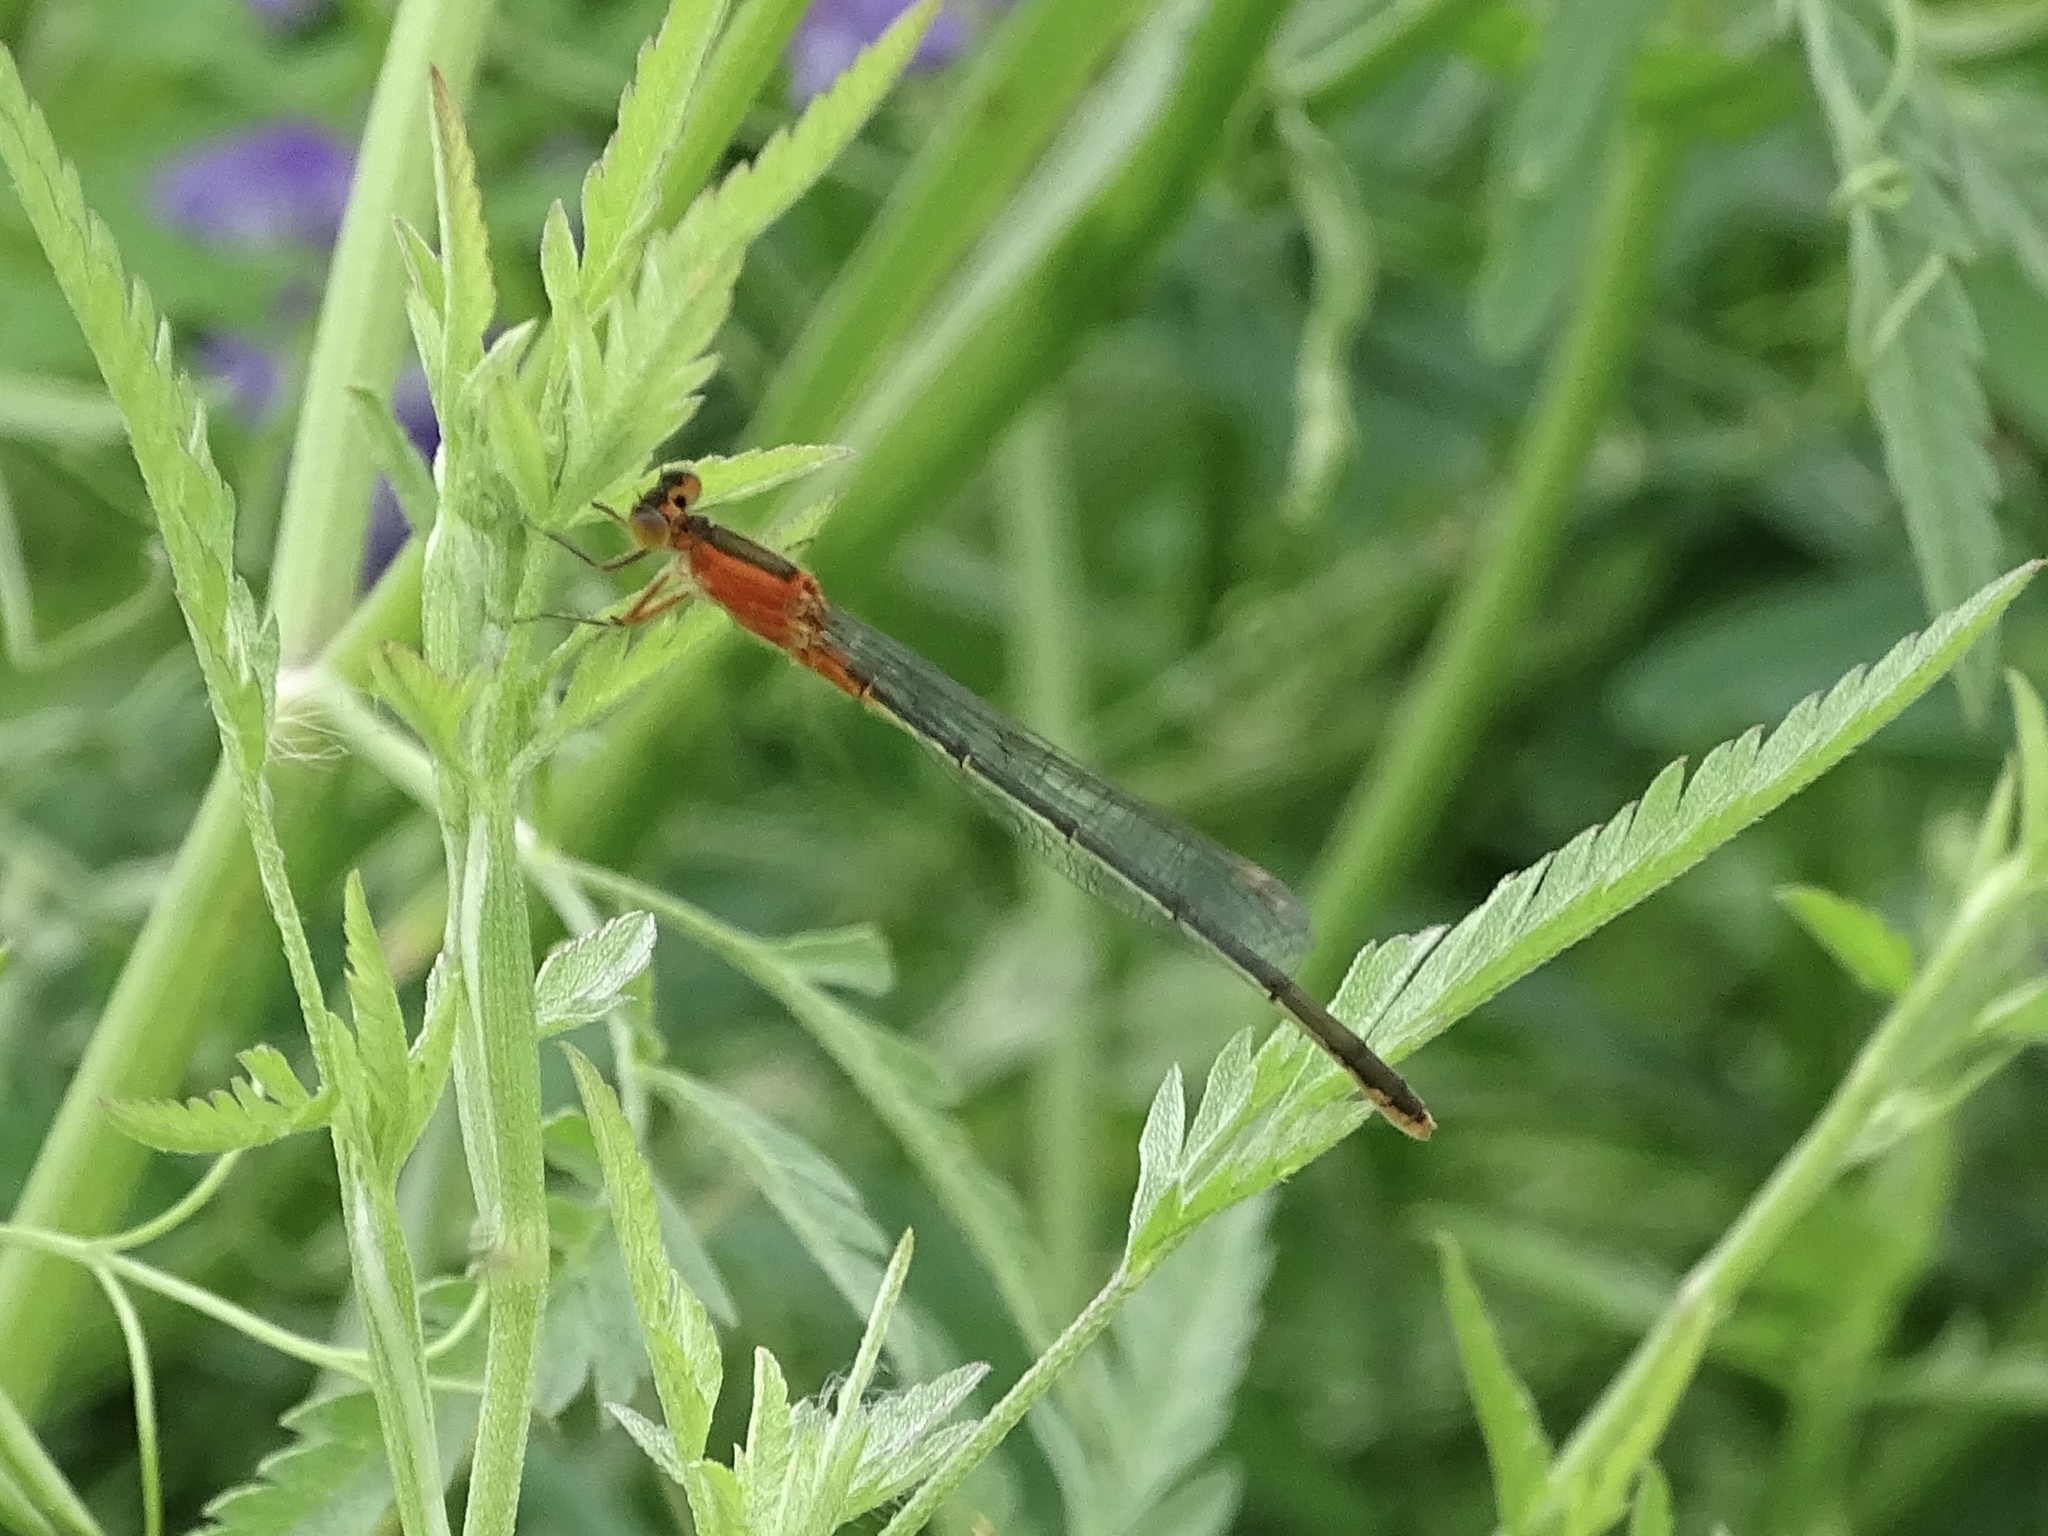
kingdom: Animalia
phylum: Arthropoda
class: Insecta
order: Odonata
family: Coenagrionidae
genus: Ischnura
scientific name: Ischnura ramburii
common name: Rambur's forktail
